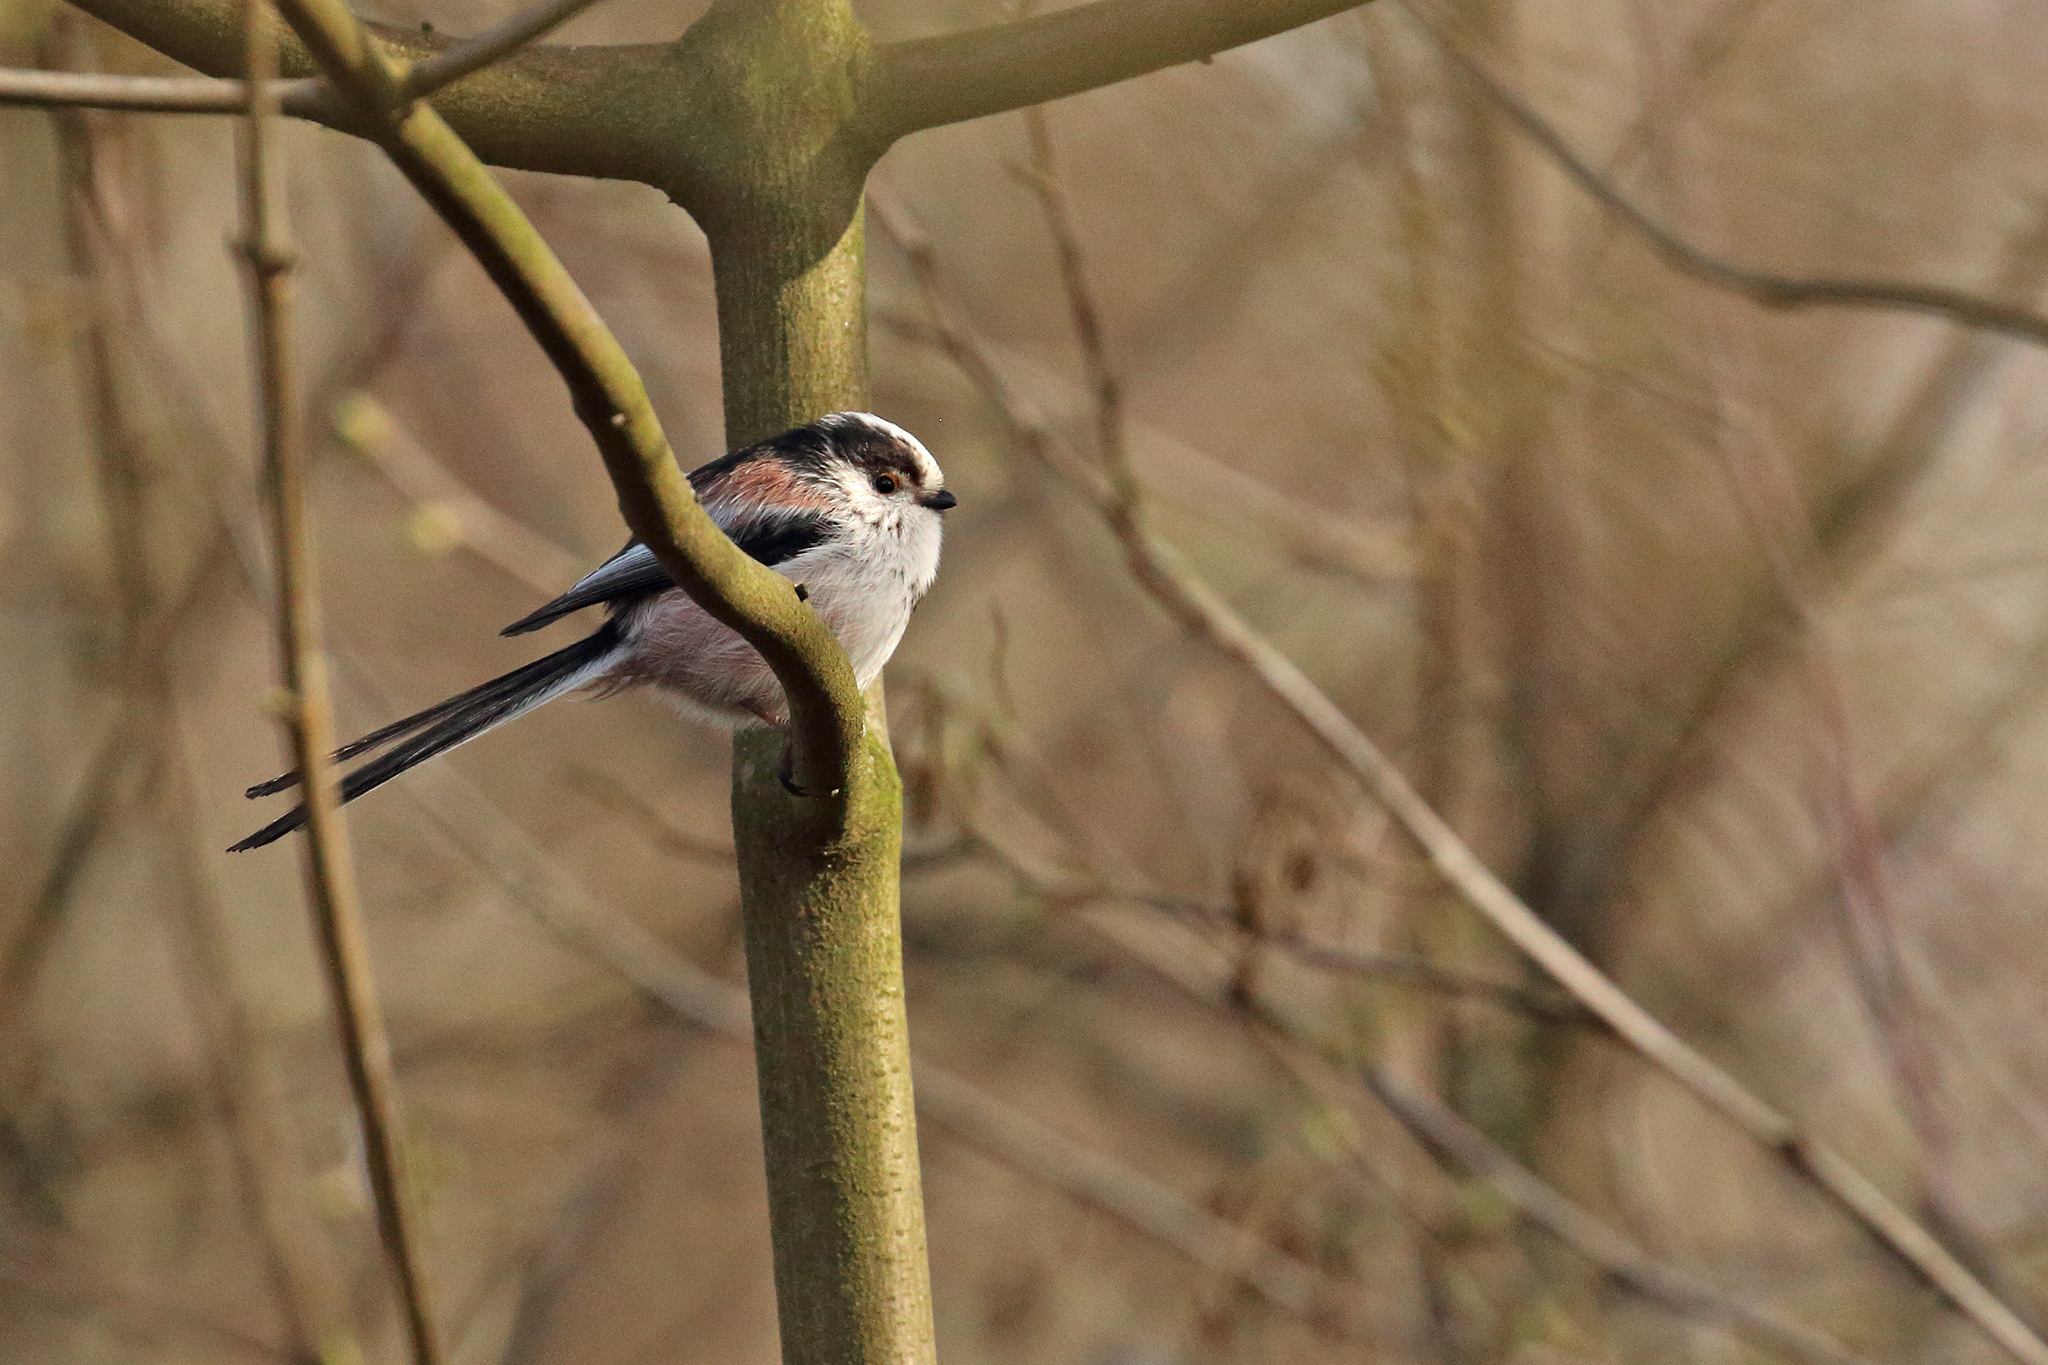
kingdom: Animalia
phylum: Chordata
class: Aves
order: Passeriformes
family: Aegithalidae
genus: Aegithalos
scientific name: Aegithalos caudatus
